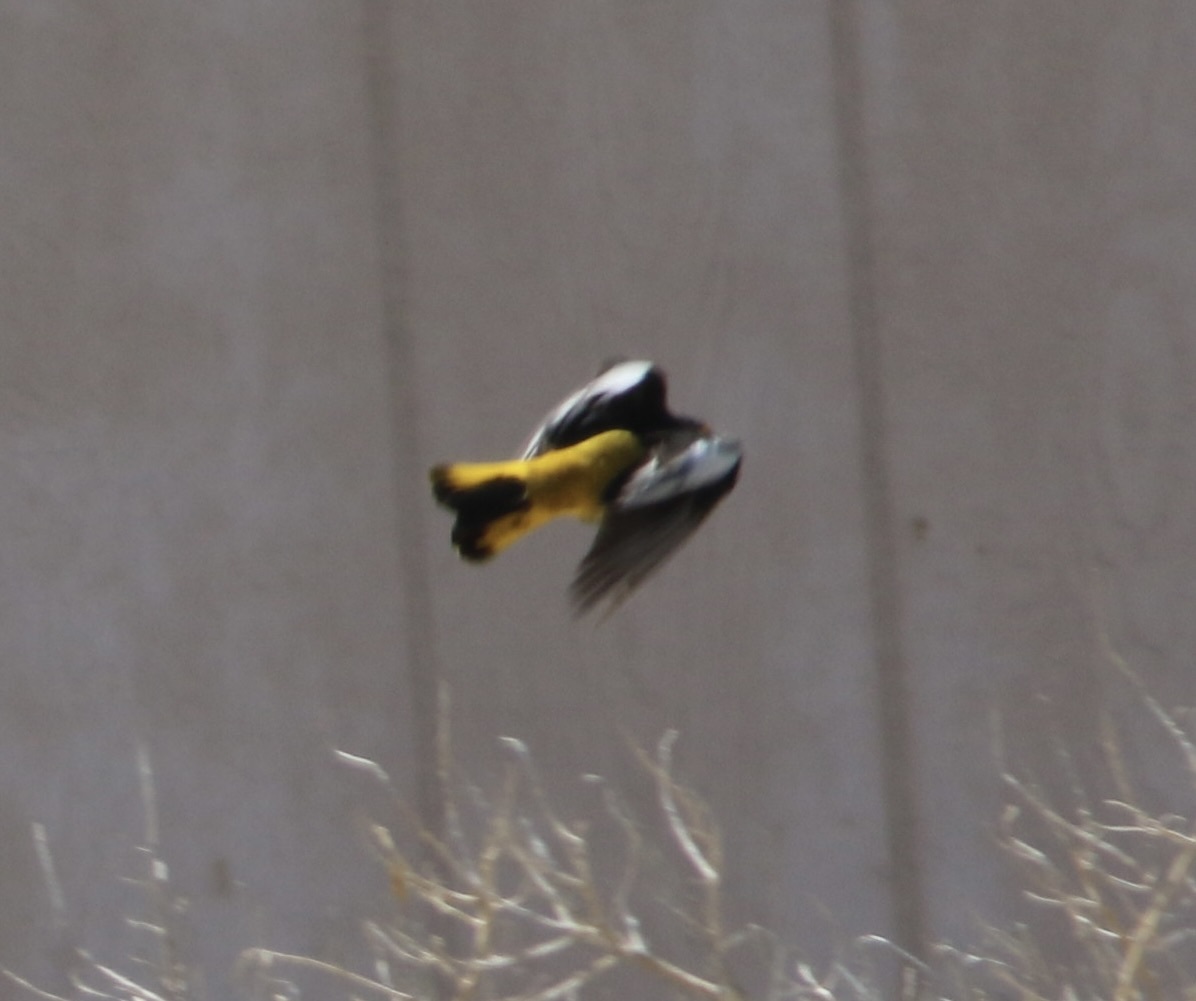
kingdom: Animalia
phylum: Chordata
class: Aves
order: Passeriformes
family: Icteridae
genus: Icterus
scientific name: Icterus bullockii
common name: Bullock's oriole
